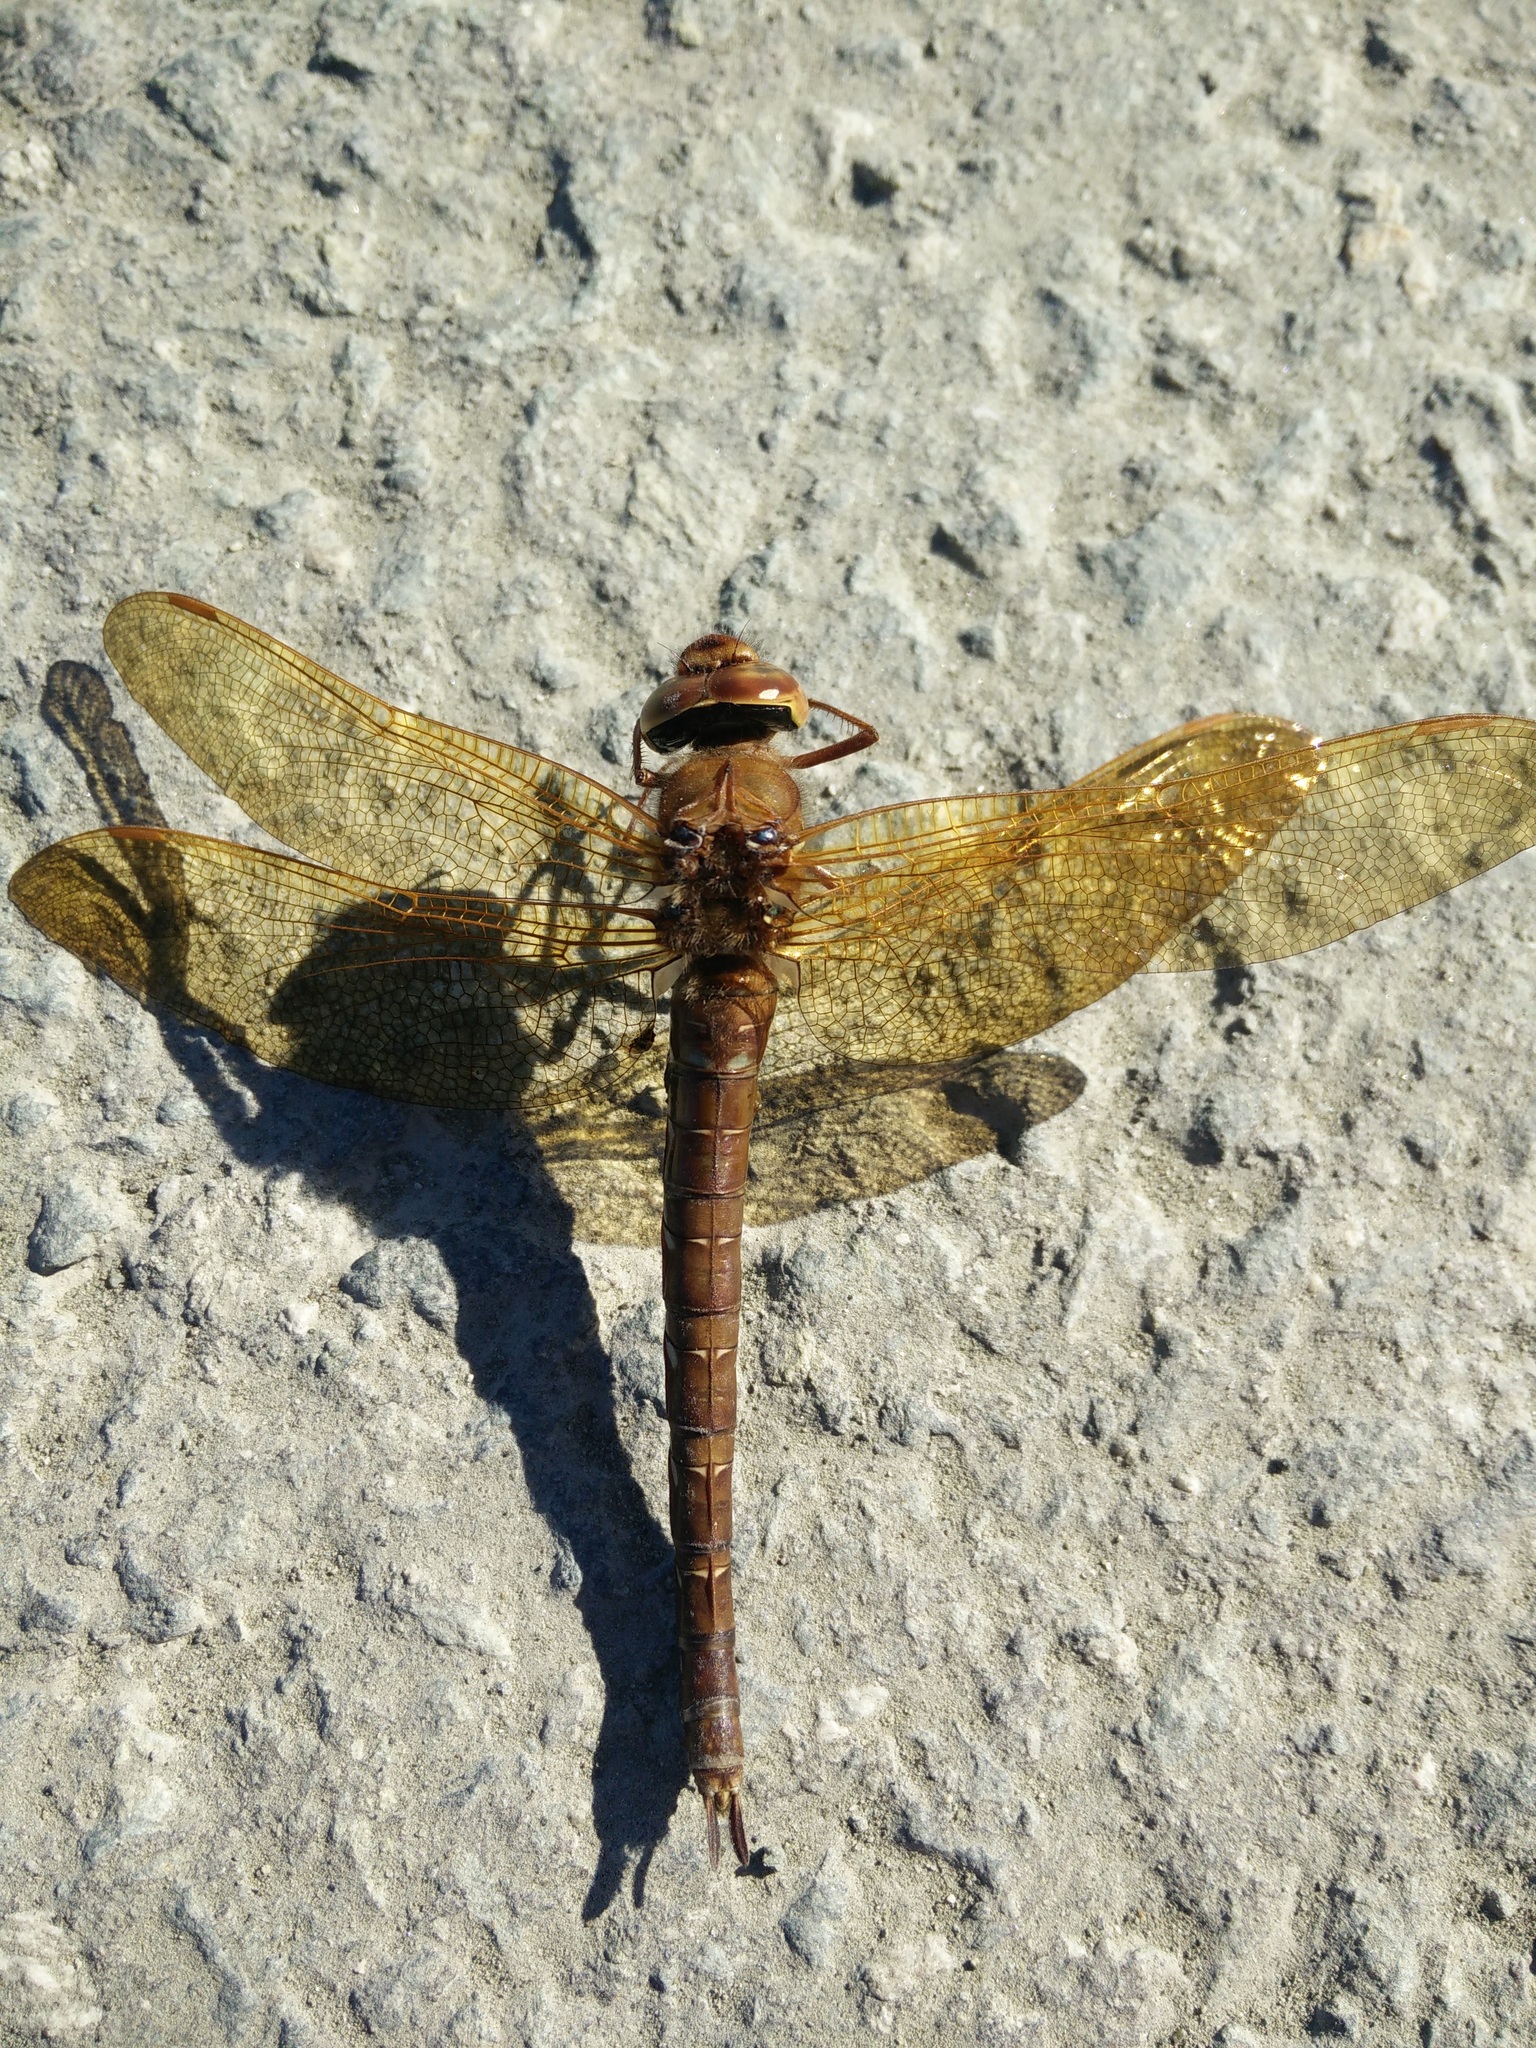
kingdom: Animalia
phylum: Arthropoda
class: Insecta
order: Odonata
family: Aeshnidae
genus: Aeshna
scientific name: Aeshna grandis
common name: Brown hawker
